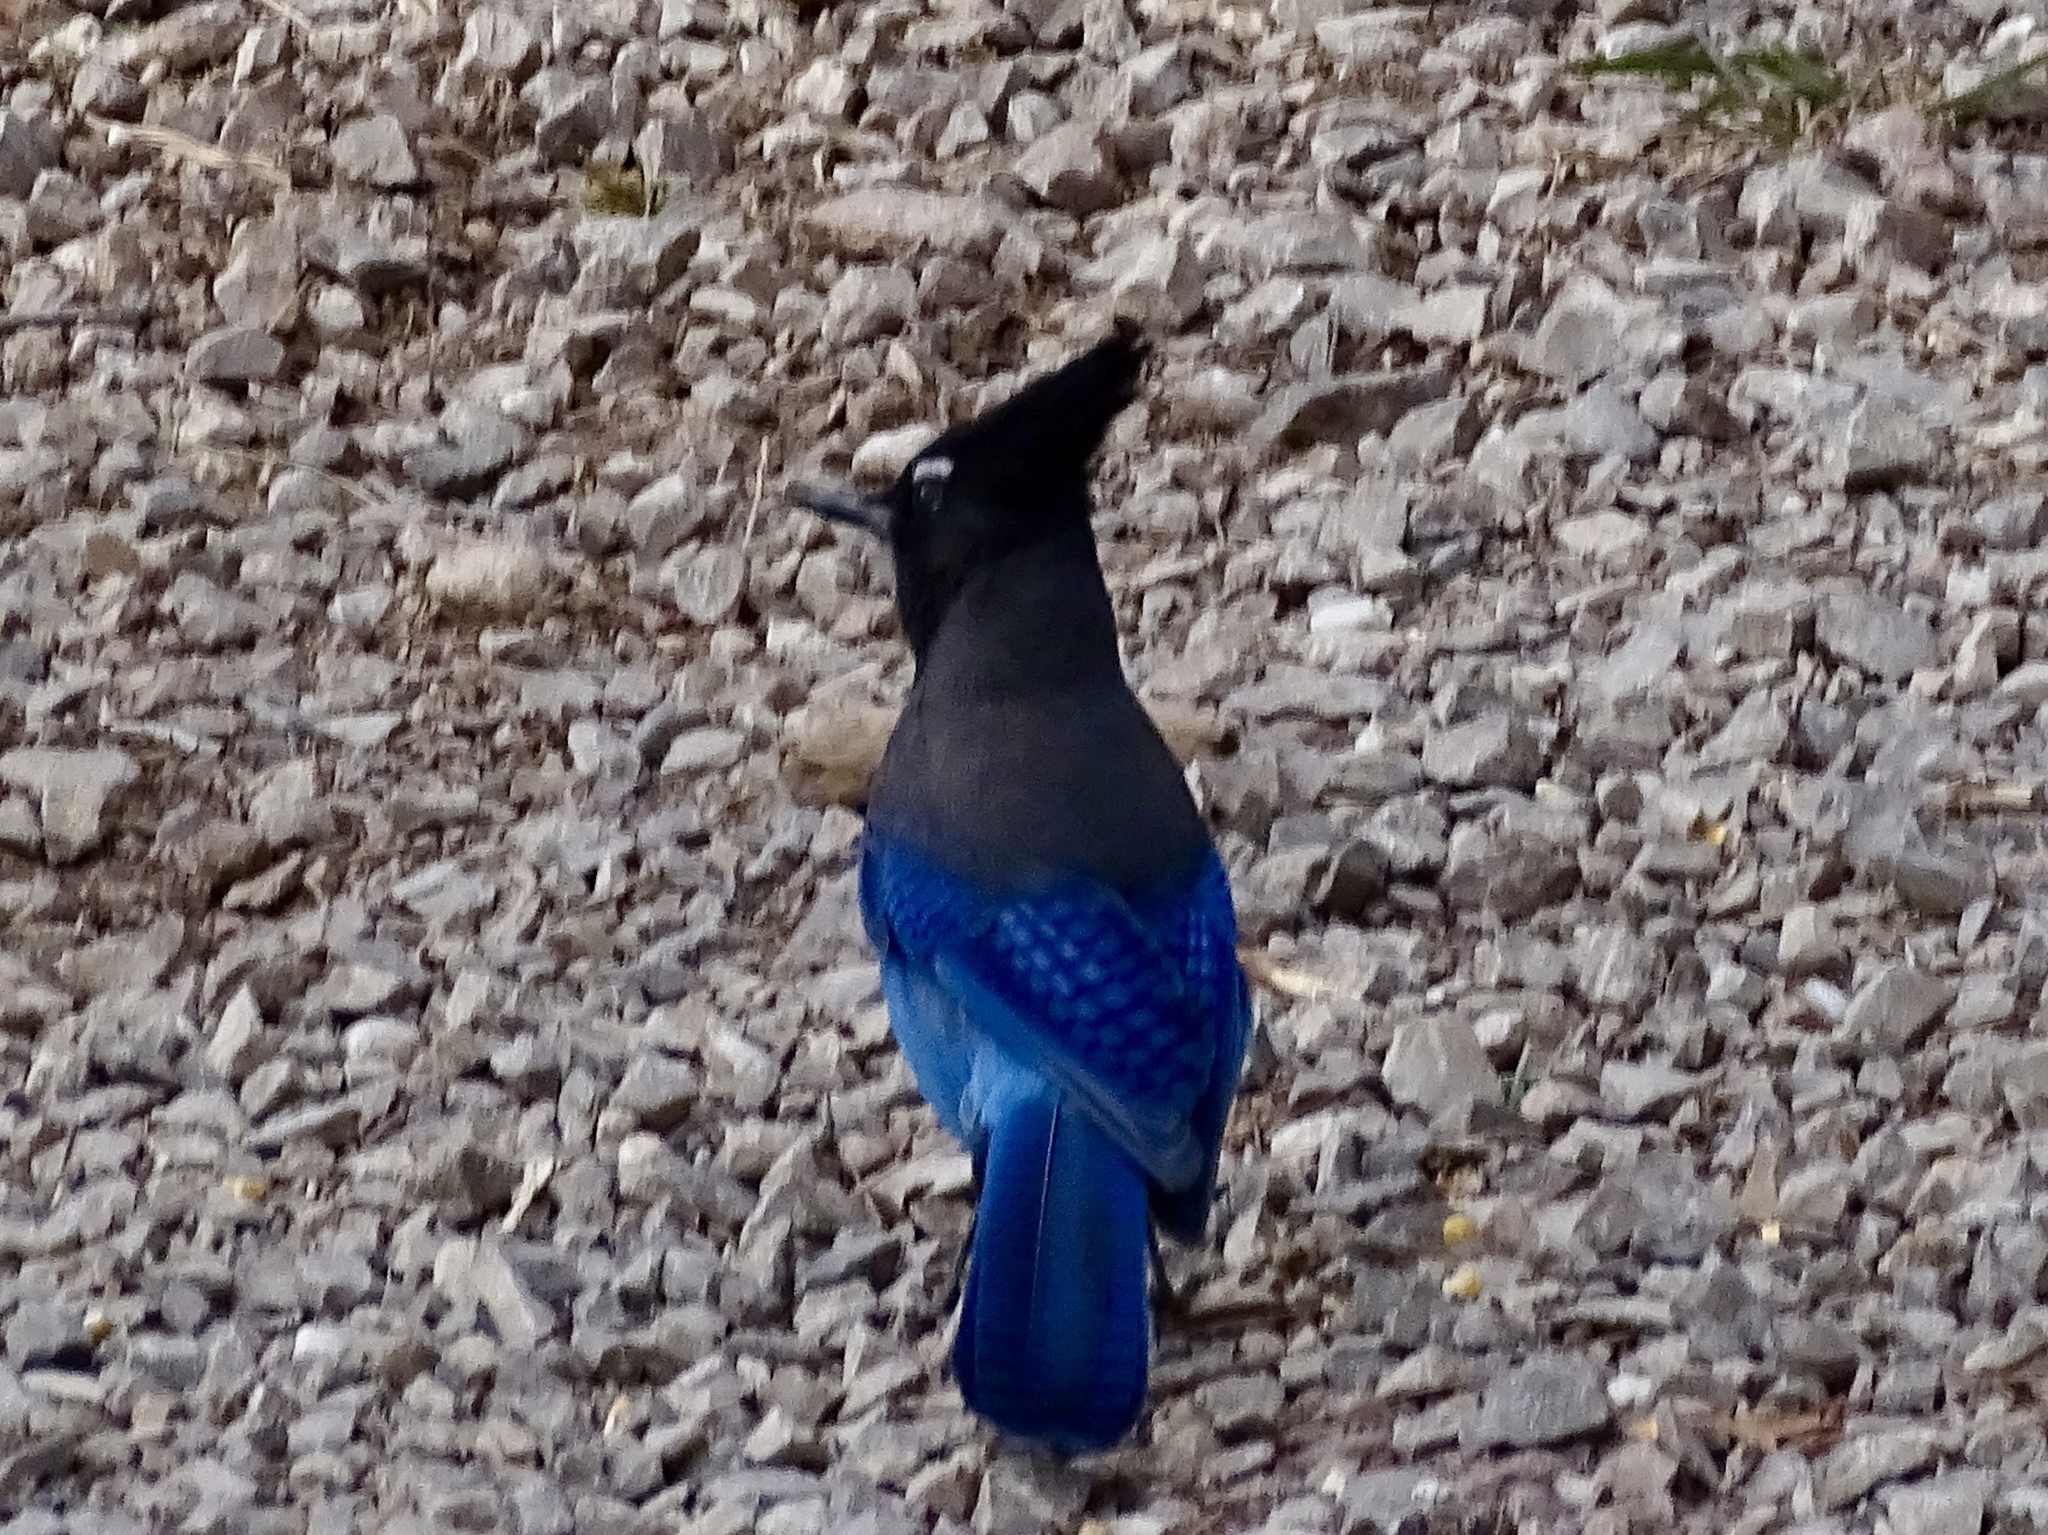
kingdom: Animalia
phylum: Chordata
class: Aves
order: Passeriformes
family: Corvidae
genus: Cyanocitta
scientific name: Cyanocitta stelleri
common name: Steller's jay
